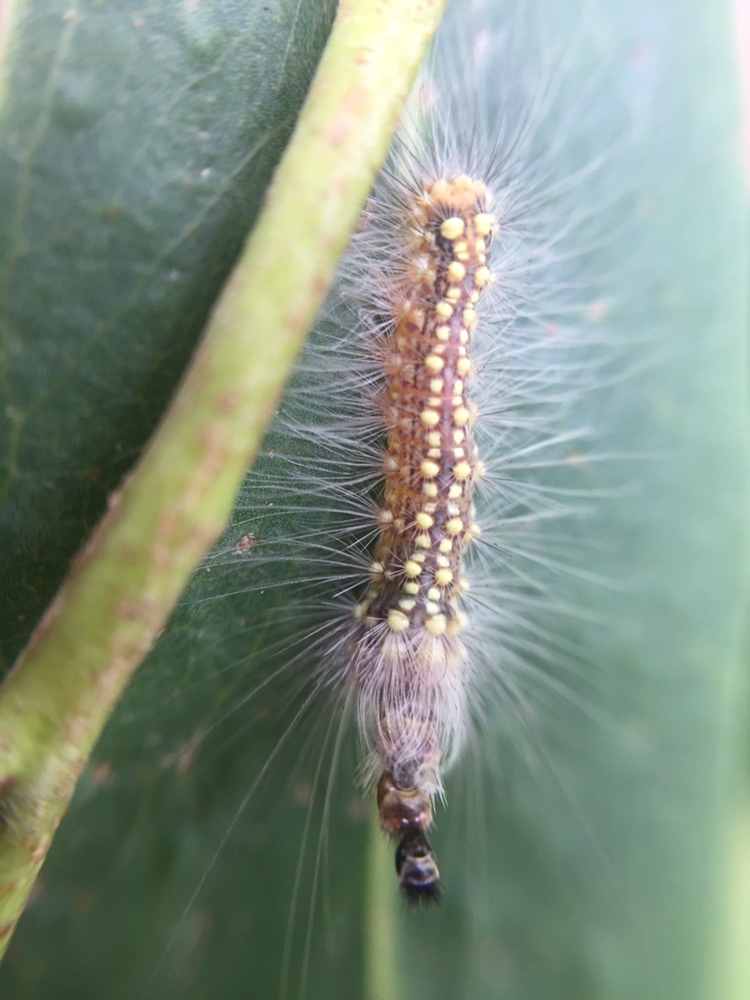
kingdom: Animalia
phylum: Arthropoda
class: Insecta
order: Lepidoptera
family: Nolidae
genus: Uraba
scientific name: Uraba lugens
